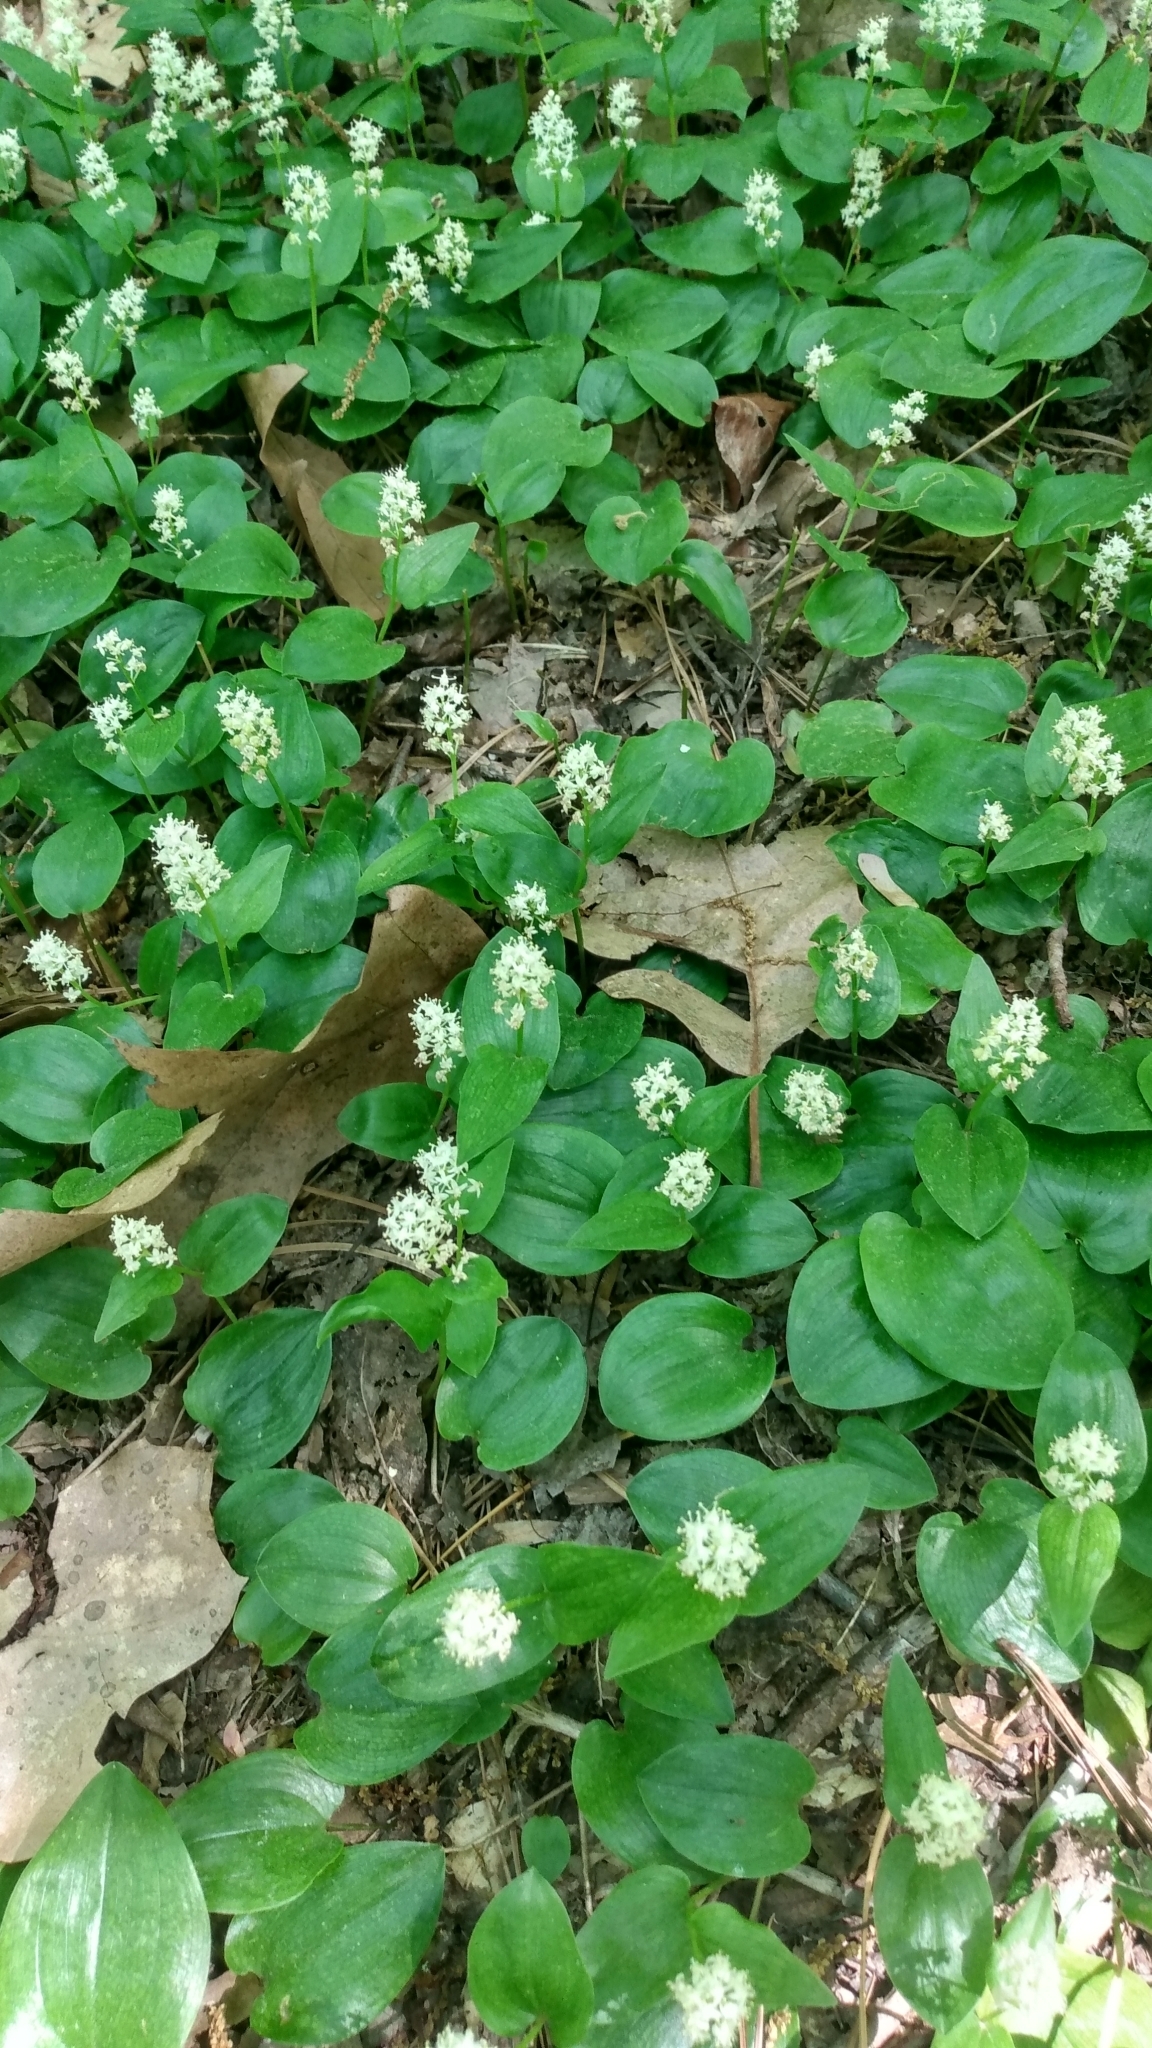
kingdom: Plantae
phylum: Tracheophyta
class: Liliopsida
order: Asparagales
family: Asparagaceae
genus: Maianthemum
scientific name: Maianthemum canadense
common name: False lily-of-the-valley
